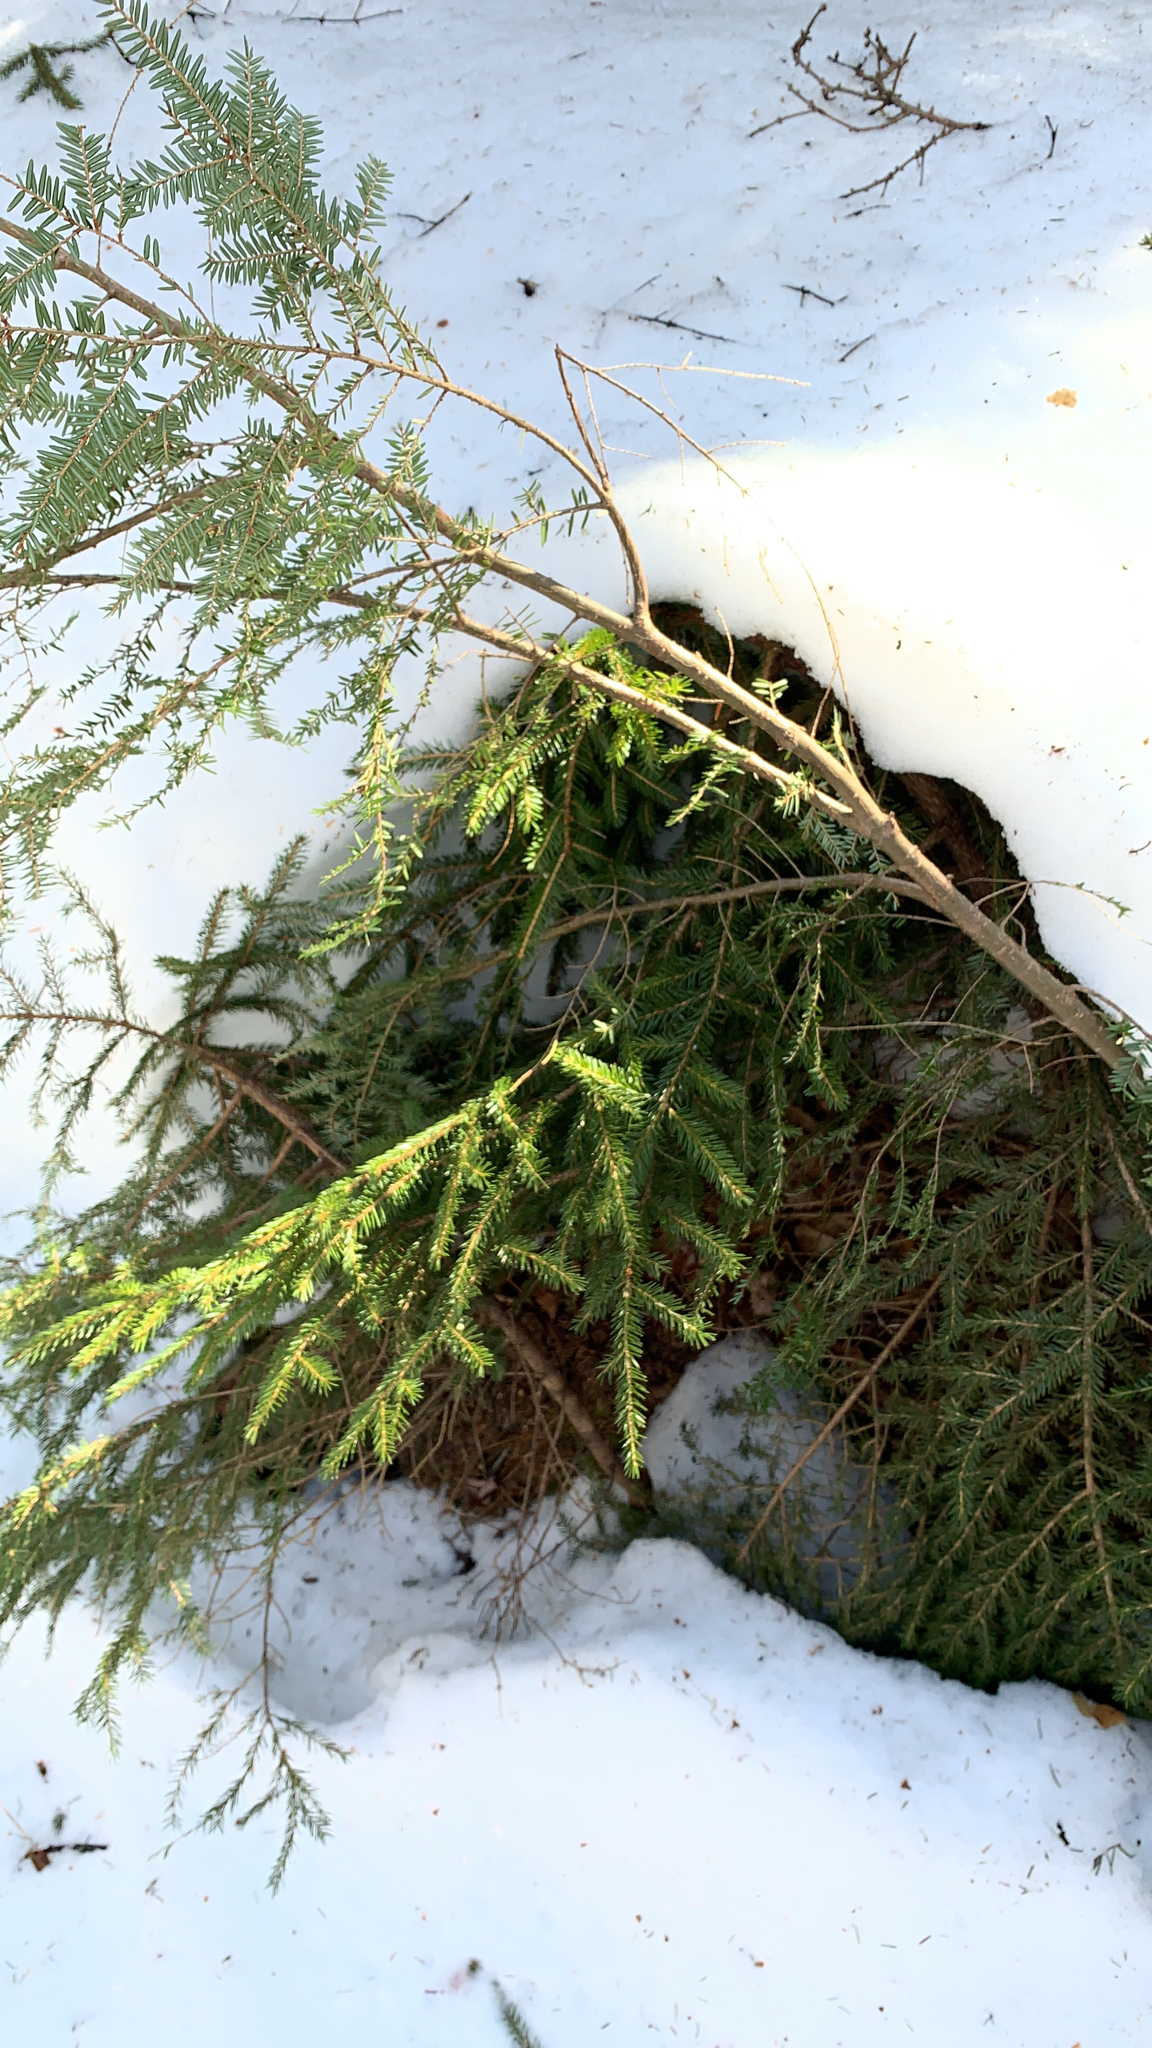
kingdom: Plantae
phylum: Tracheophyta
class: Pinopsida
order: Pinales
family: Pinaceae
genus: Tsuga
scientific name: Tsuga canadensis
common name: Eastern hemlock
